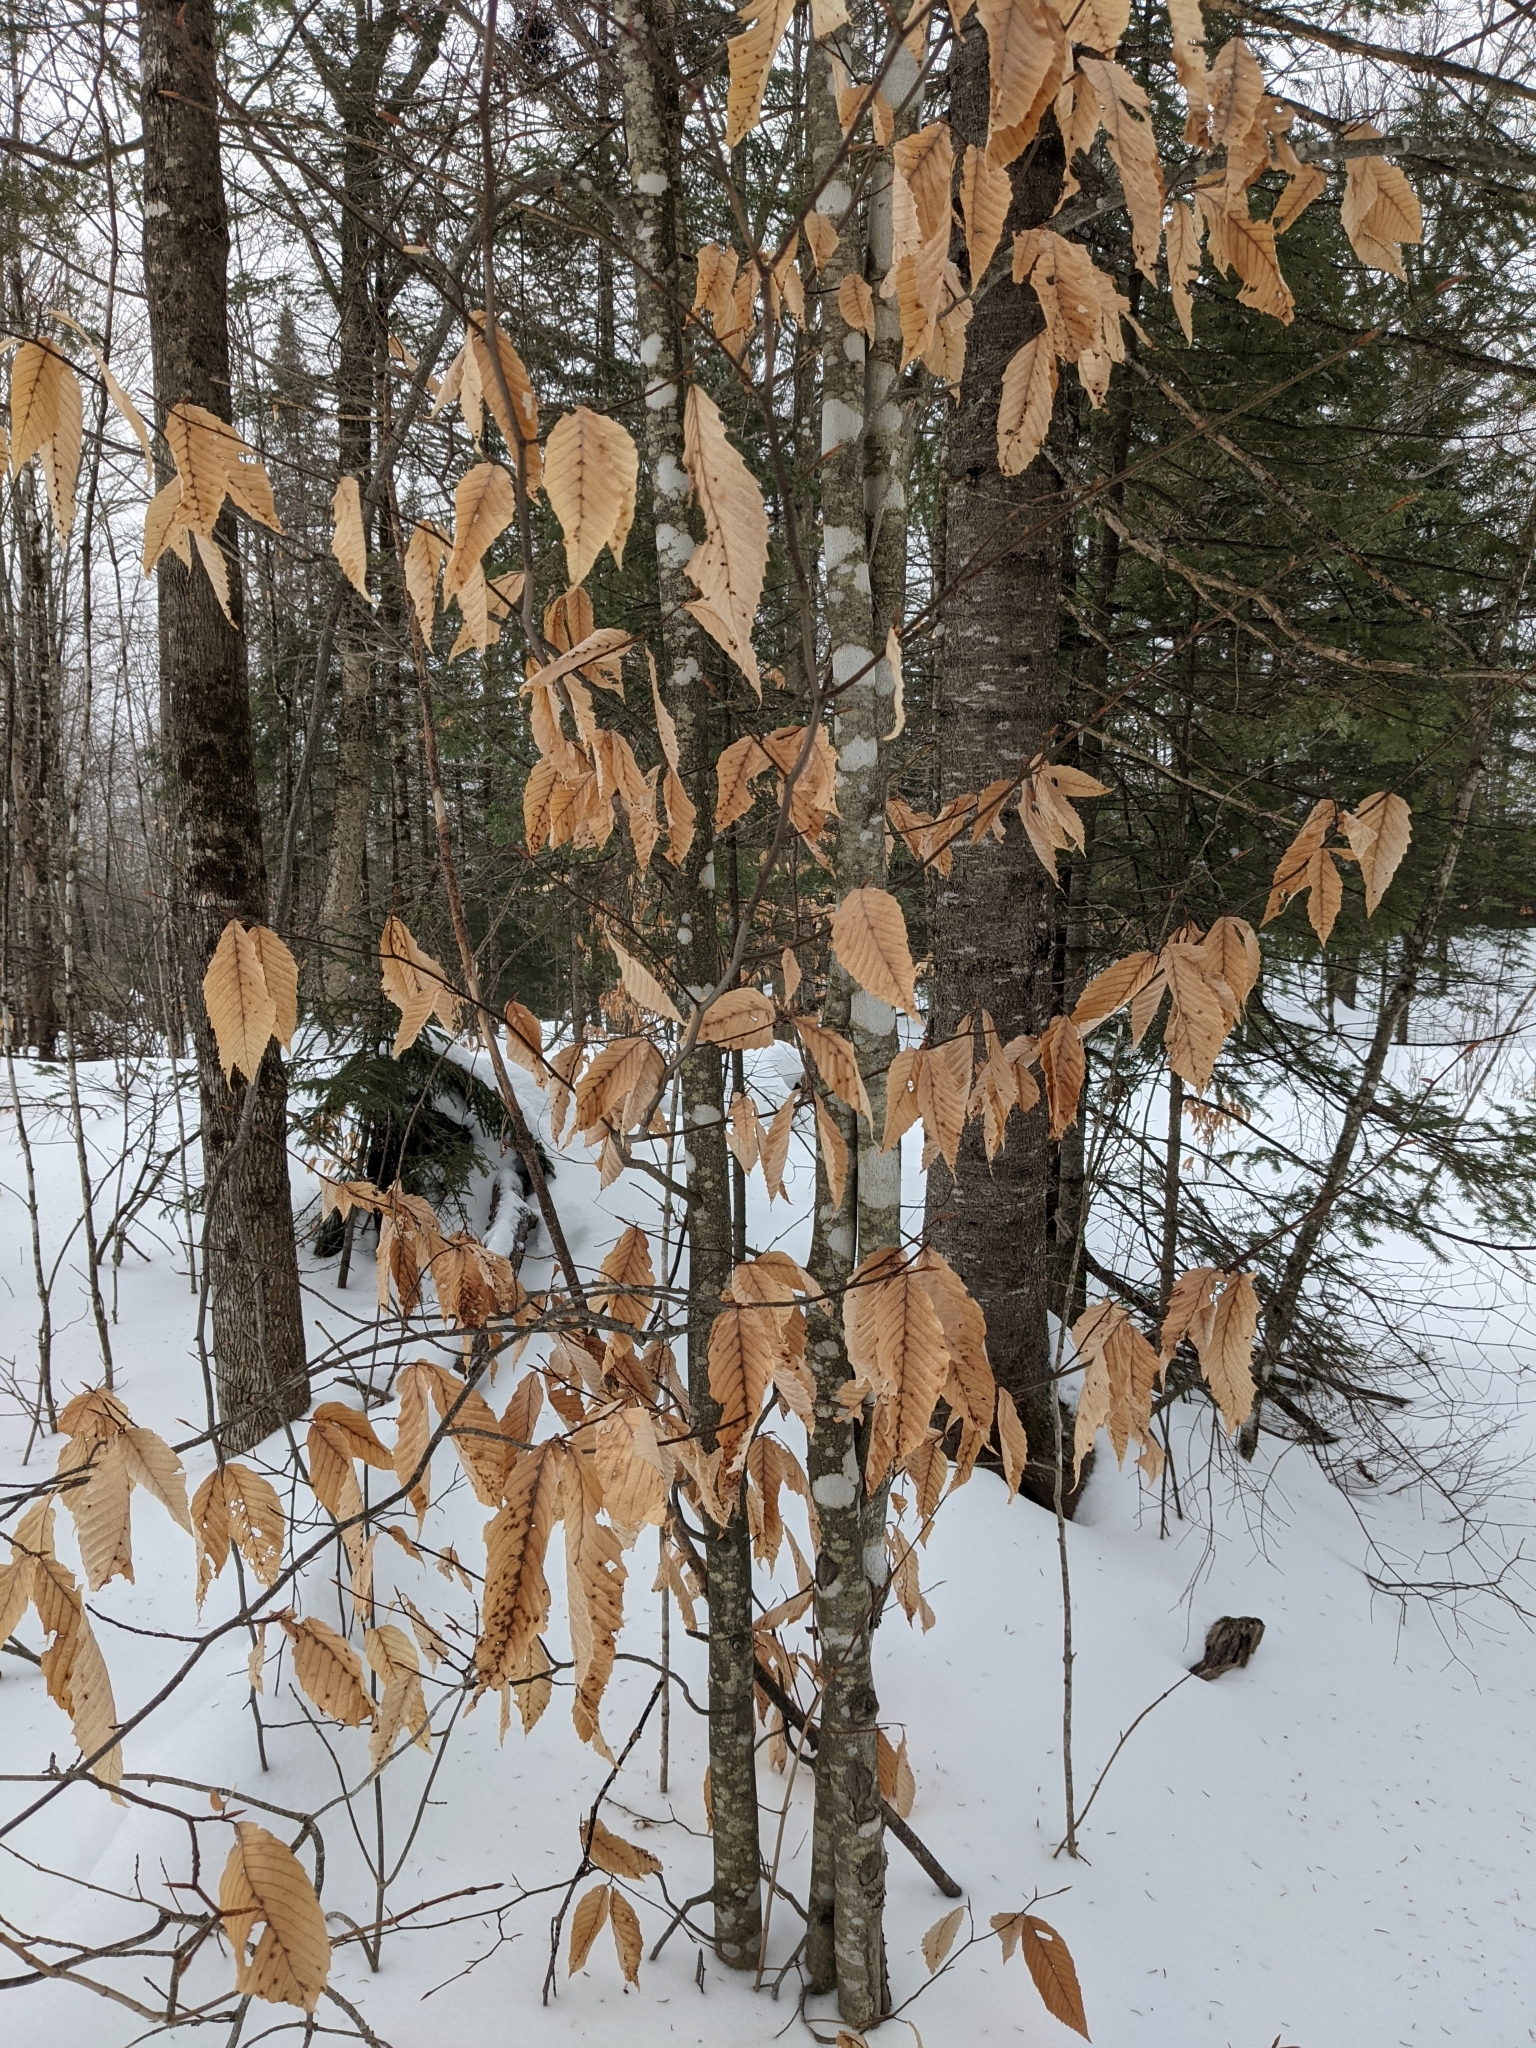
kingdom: Plantae
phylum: Tracheophyta
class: Magnoliopsida
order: Fagales
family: Fagaceae
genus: Fagus
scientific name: Fagus grandifolia
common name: American beech
